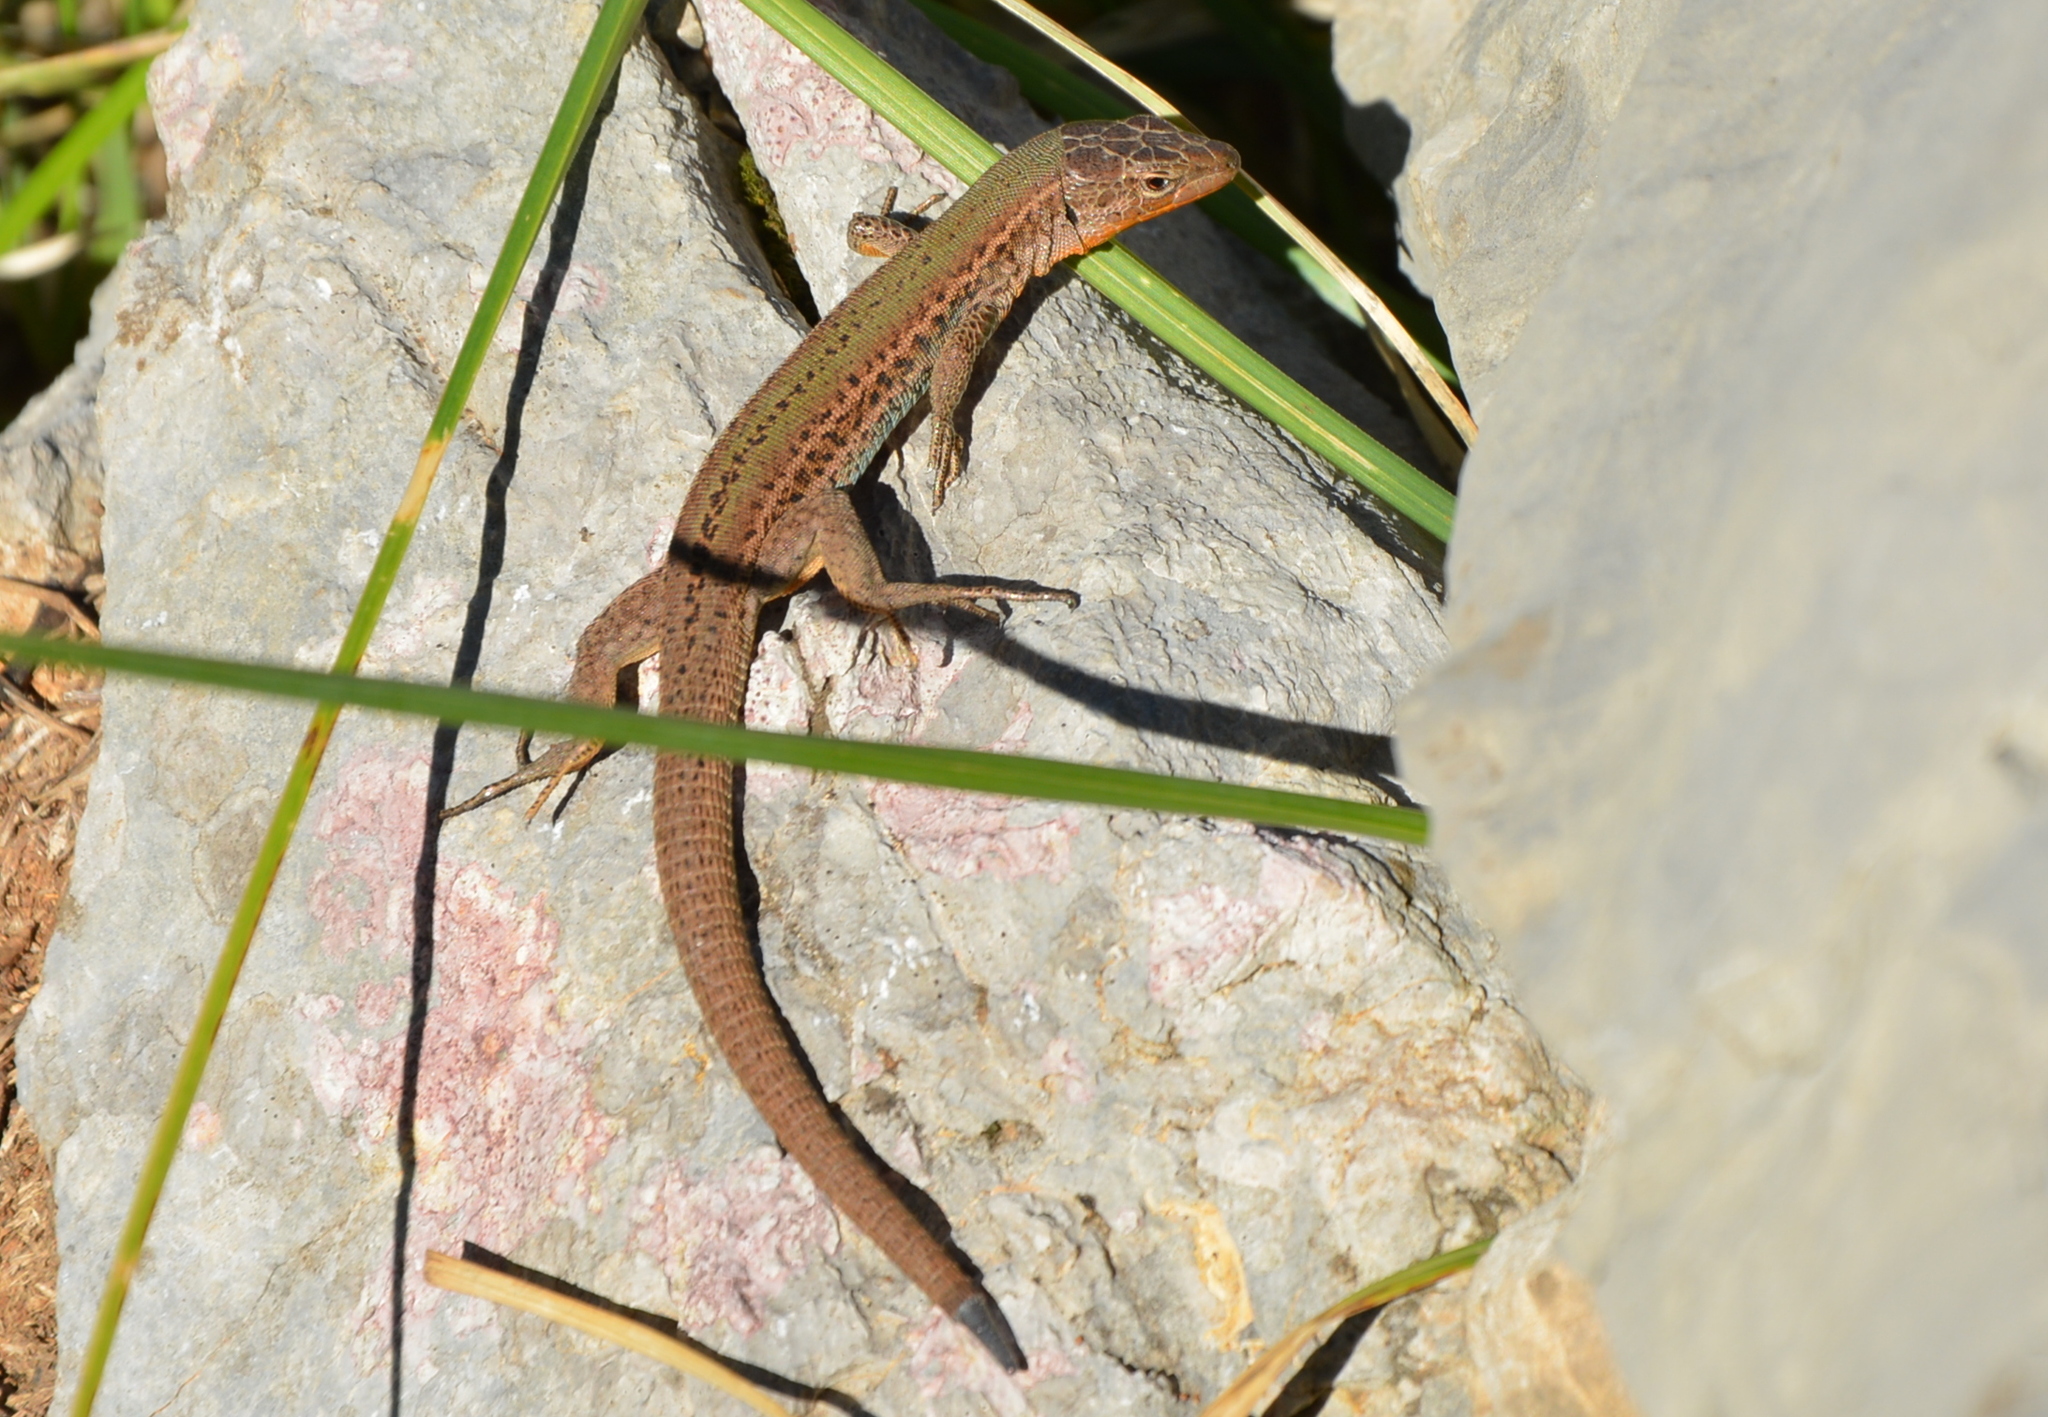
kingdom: Animalia
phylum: Chordata
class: Squamata
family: Lacertidae
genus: Podarcis
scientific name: Podarcis melisellensis
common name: Dalmatian wall lizard
